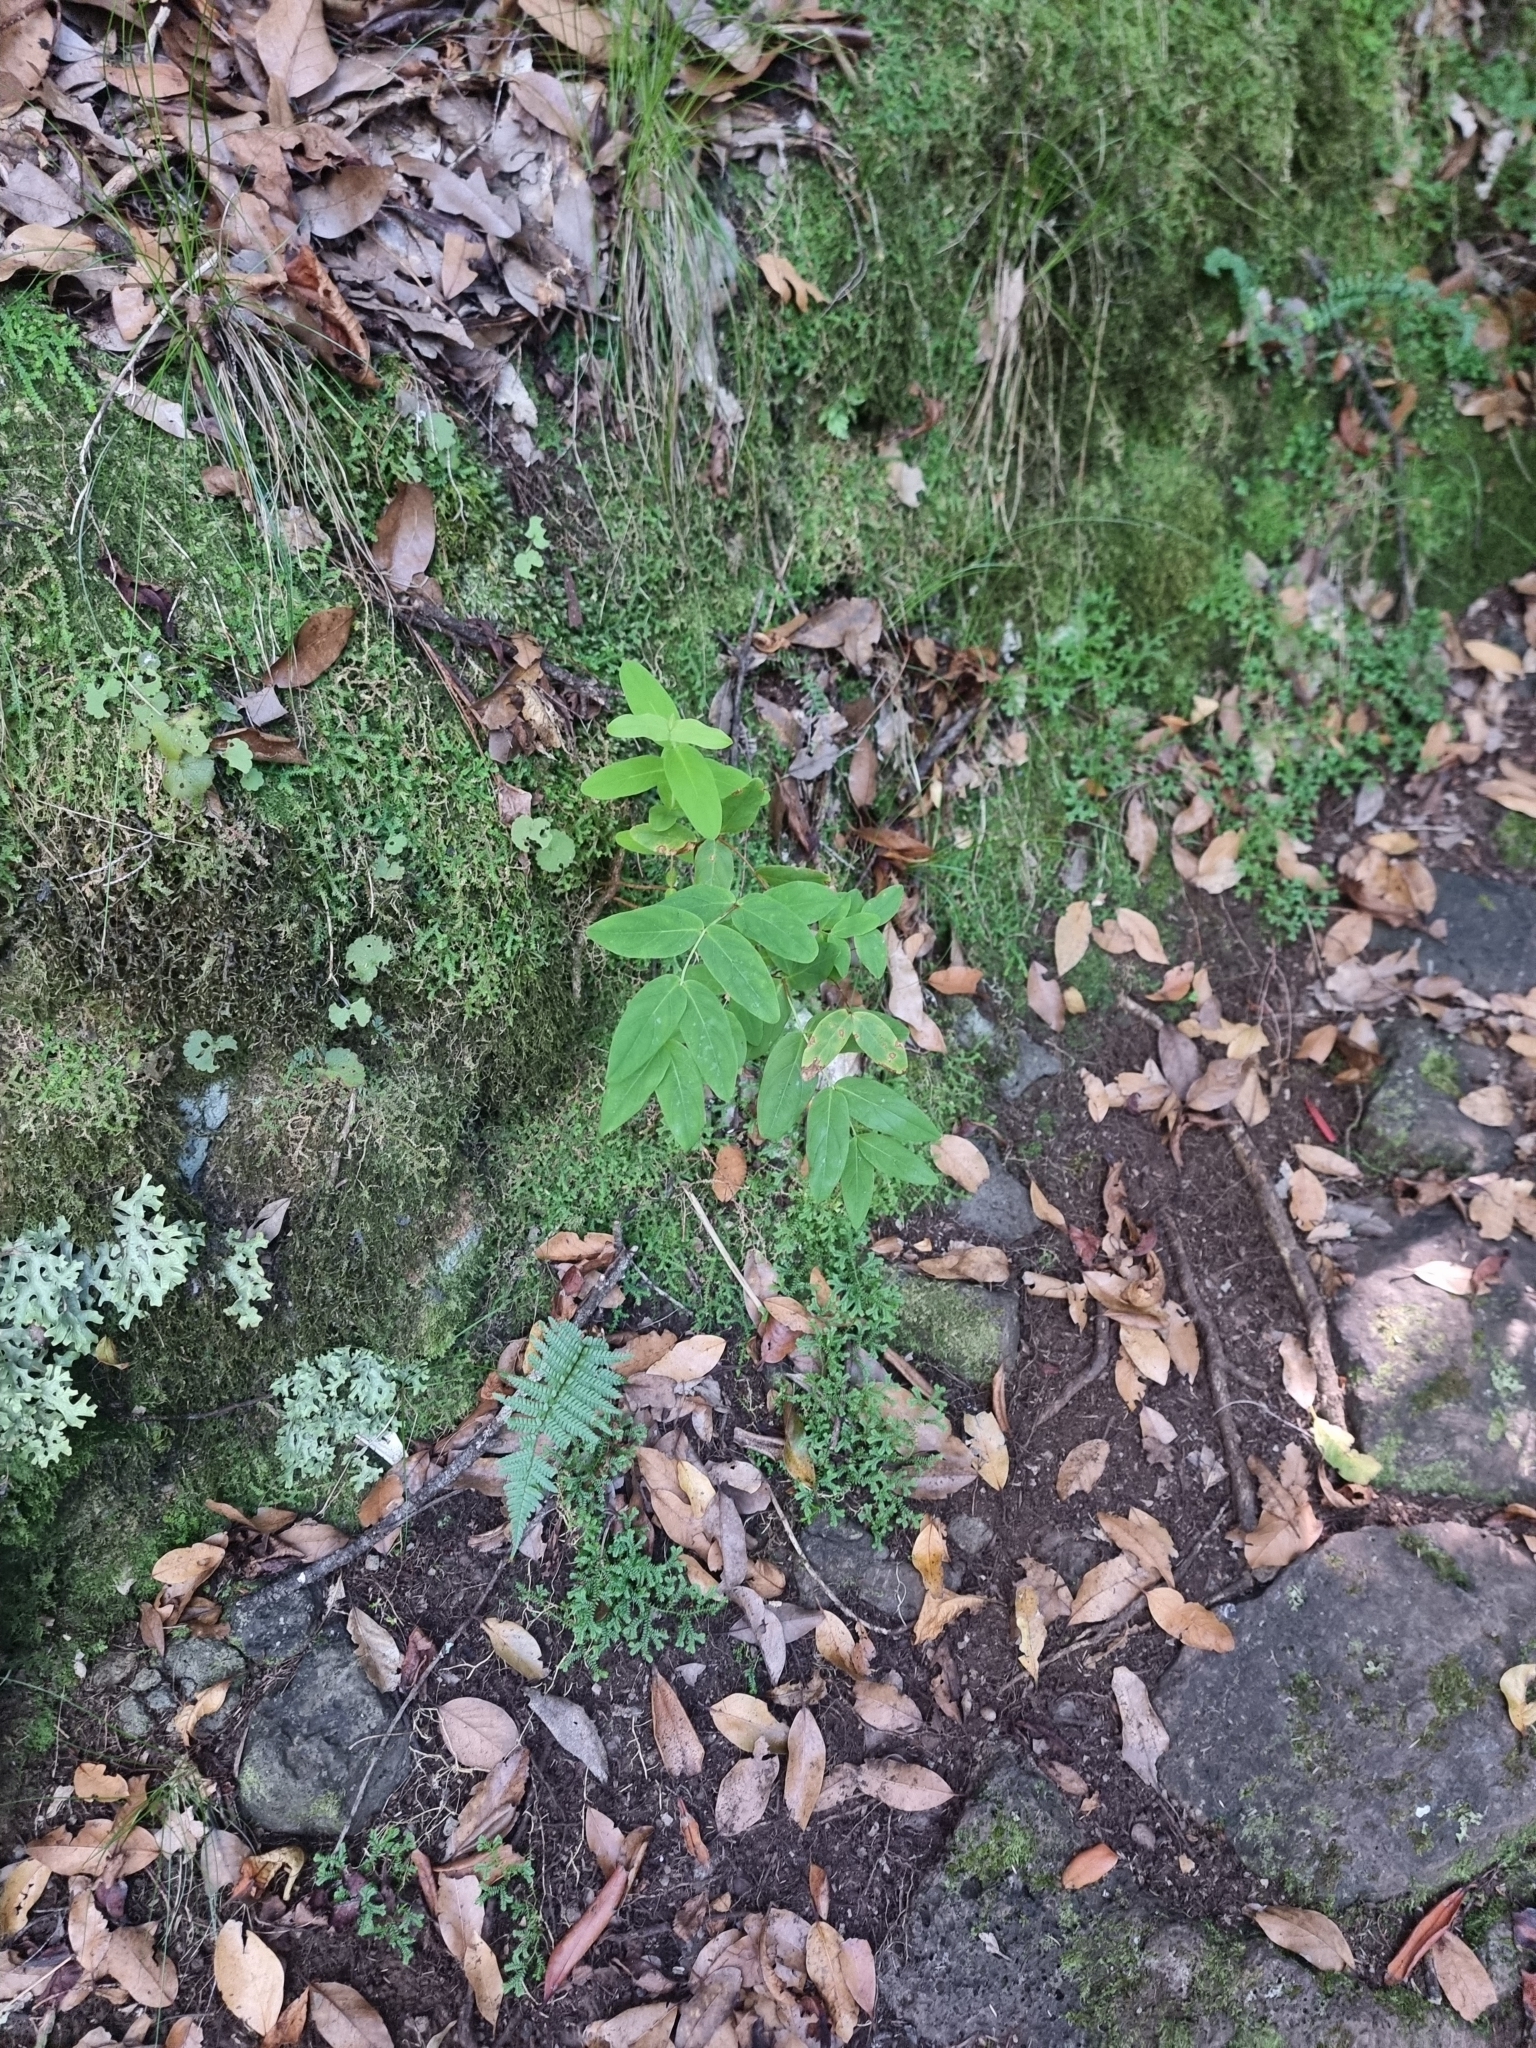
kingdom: Plantae
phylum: Tracheophyta
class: Magnoliopsida
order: Malpighiales
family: Hypericaceae
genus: Hypericum
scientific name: Hypericum grandifolium
